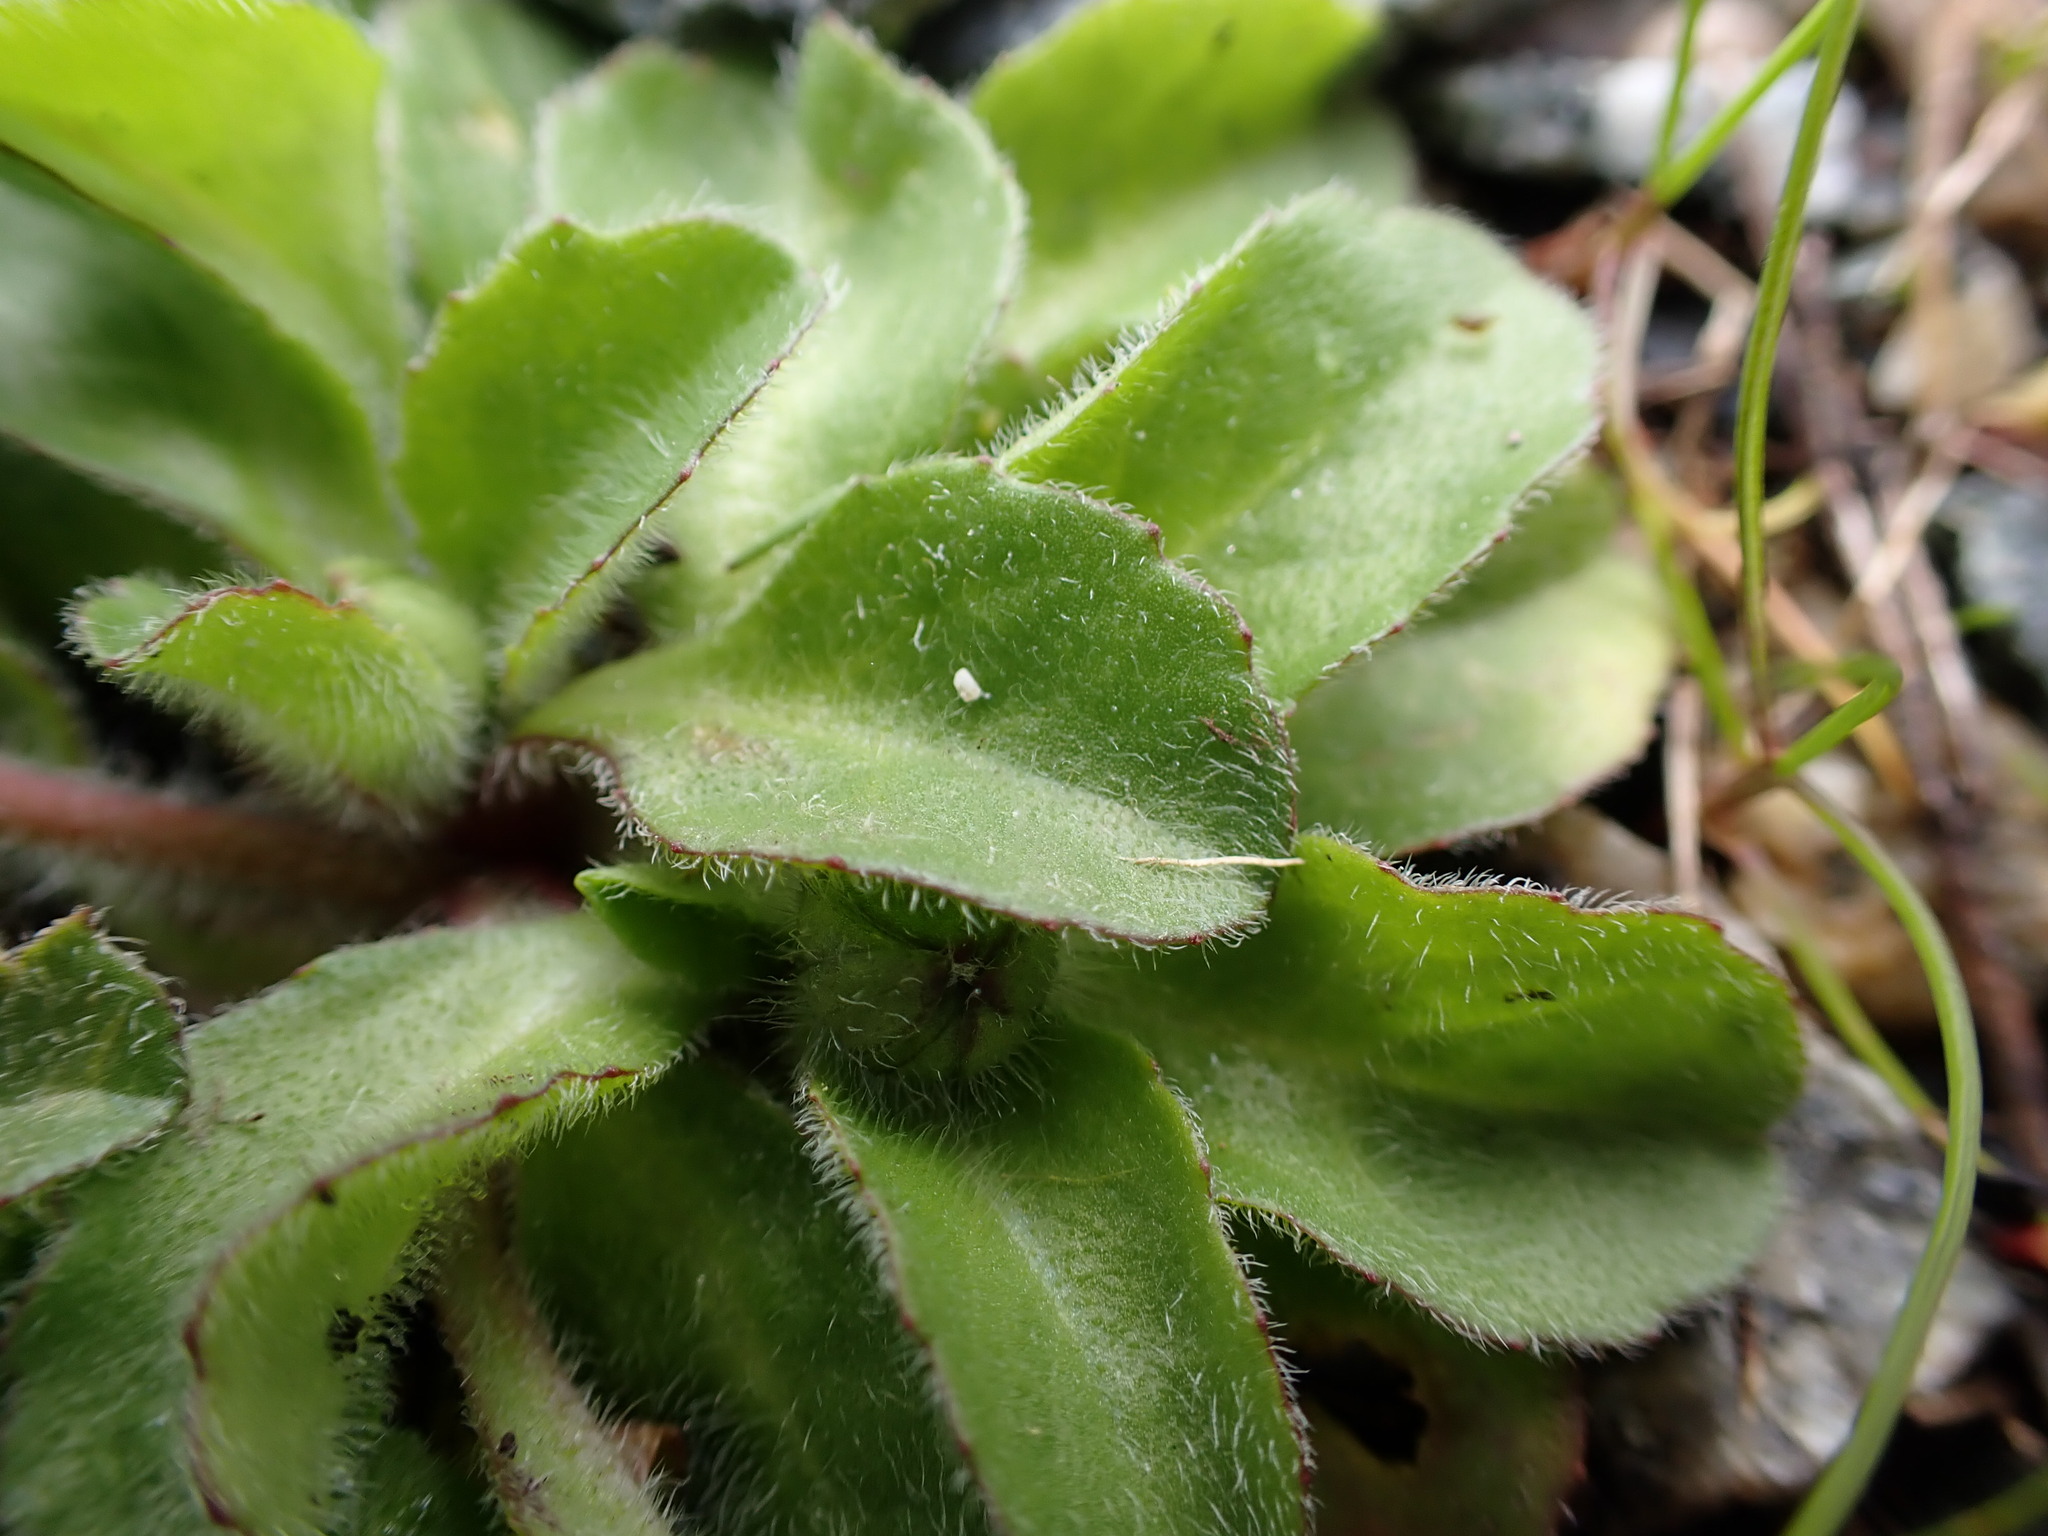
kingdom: Plantae
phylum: Tracheophyta
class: Magnoliopsida
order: Asterales
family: Asteraceae
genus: Bellis
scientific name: Bellis perennis
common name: Lawndaisy
